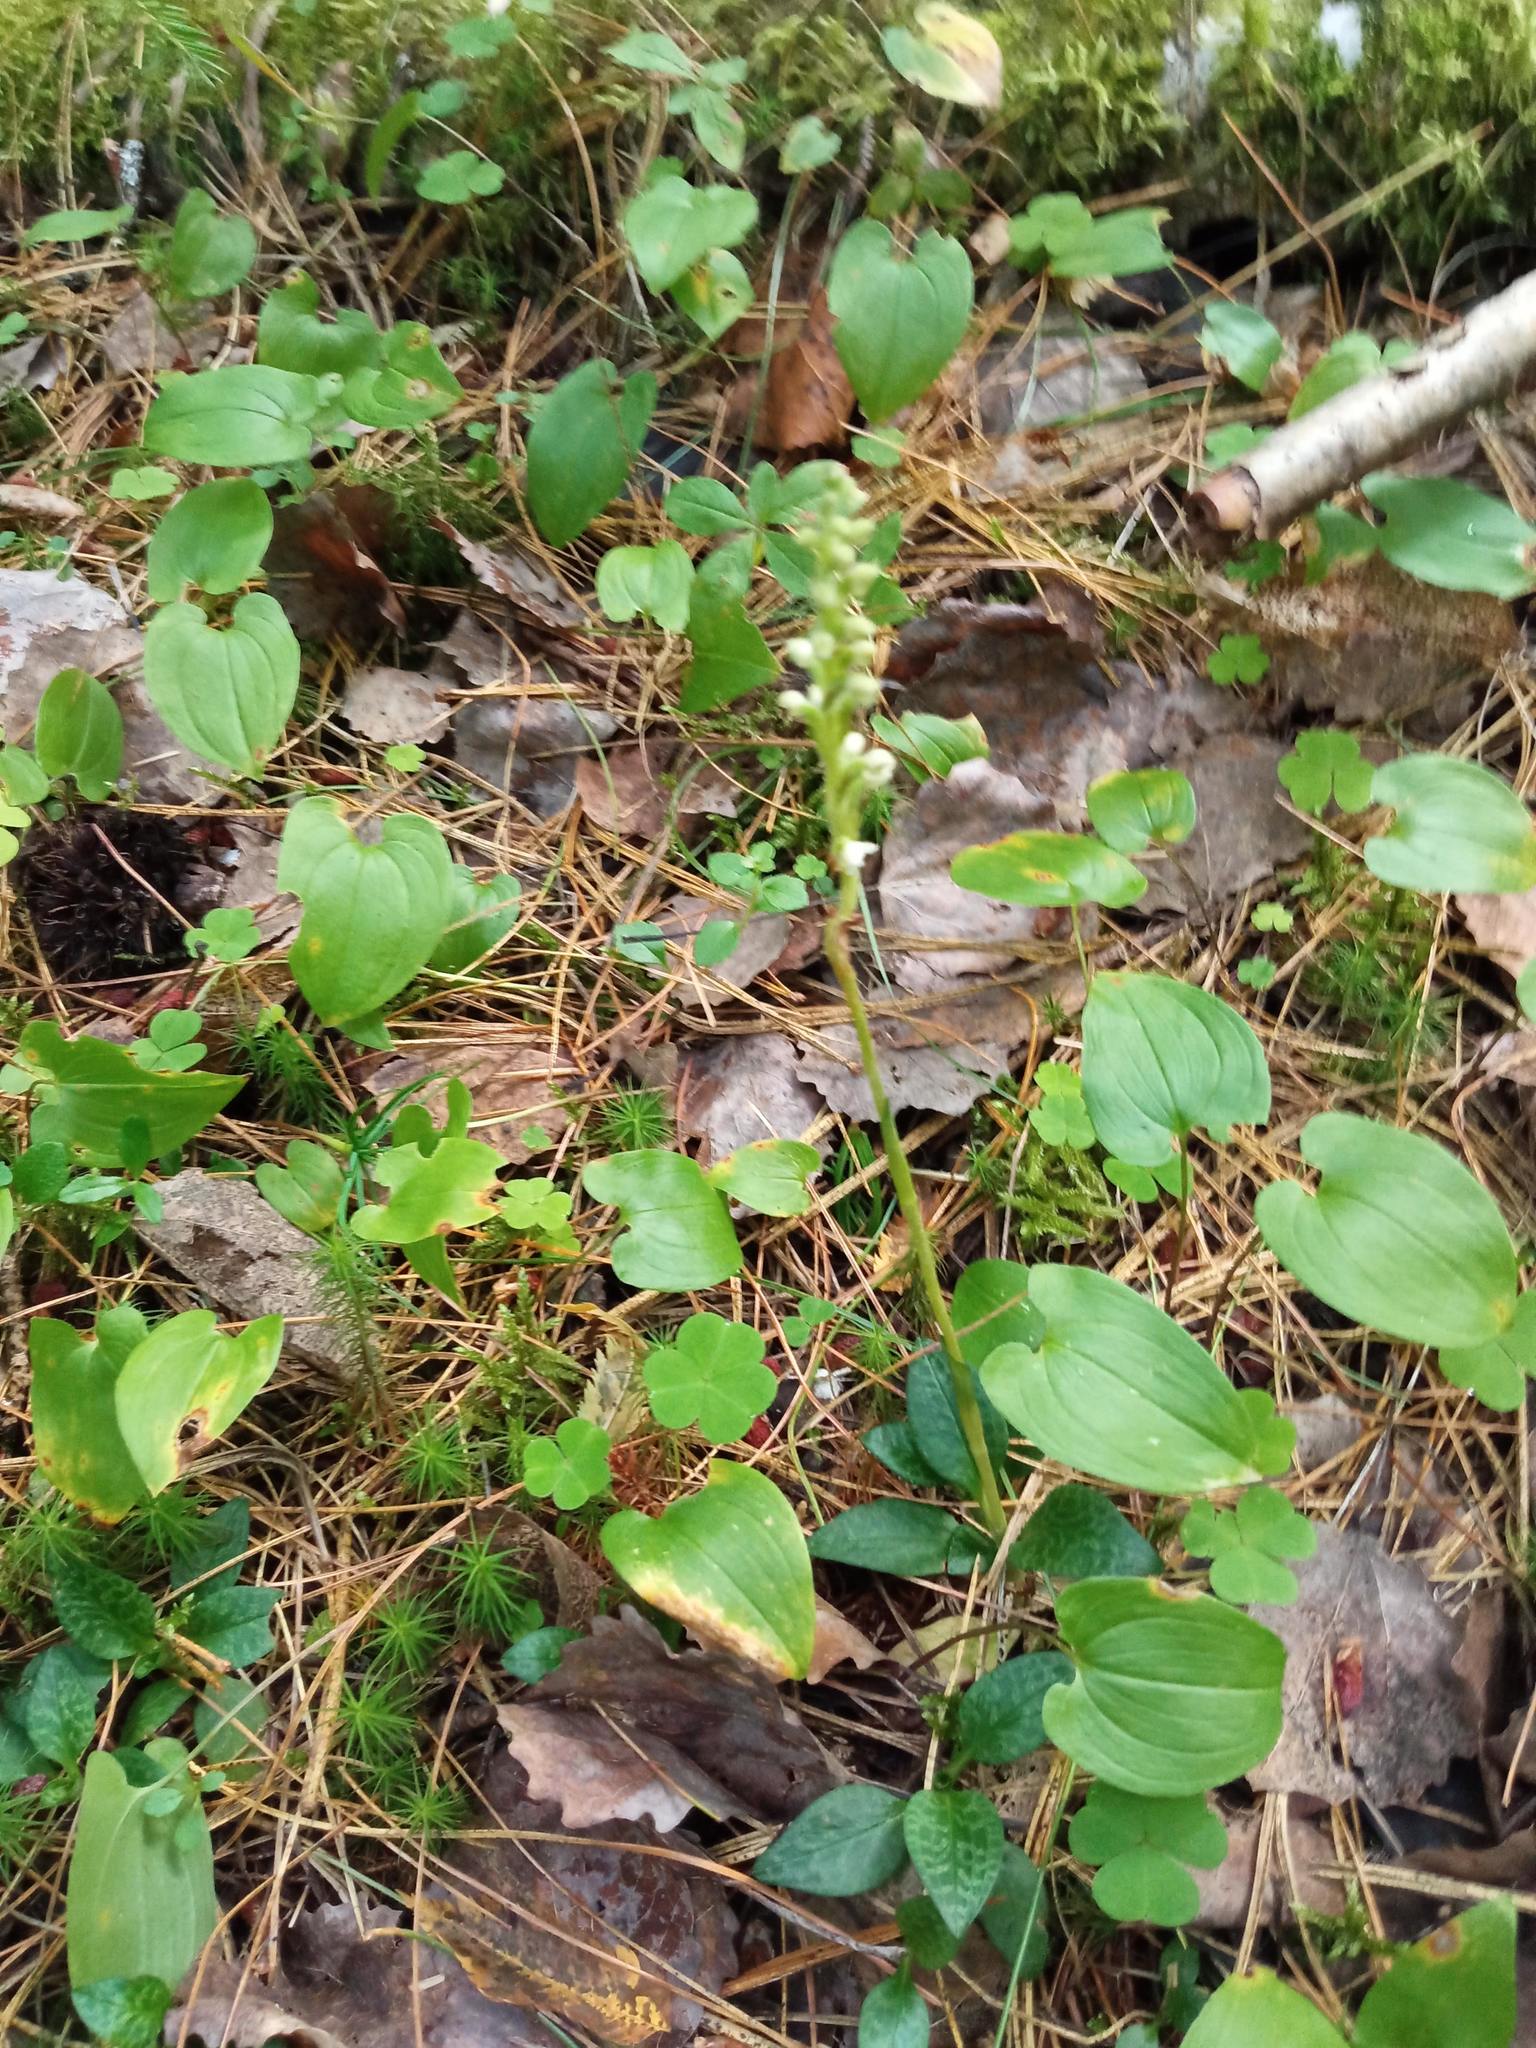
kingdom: Plantae
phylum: Tracheophyta
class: Liliopsida
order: Asparagales
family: Orchidaceae
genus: Goodyera
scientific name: Goodyera repens
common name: Creeping lady's-tresses
